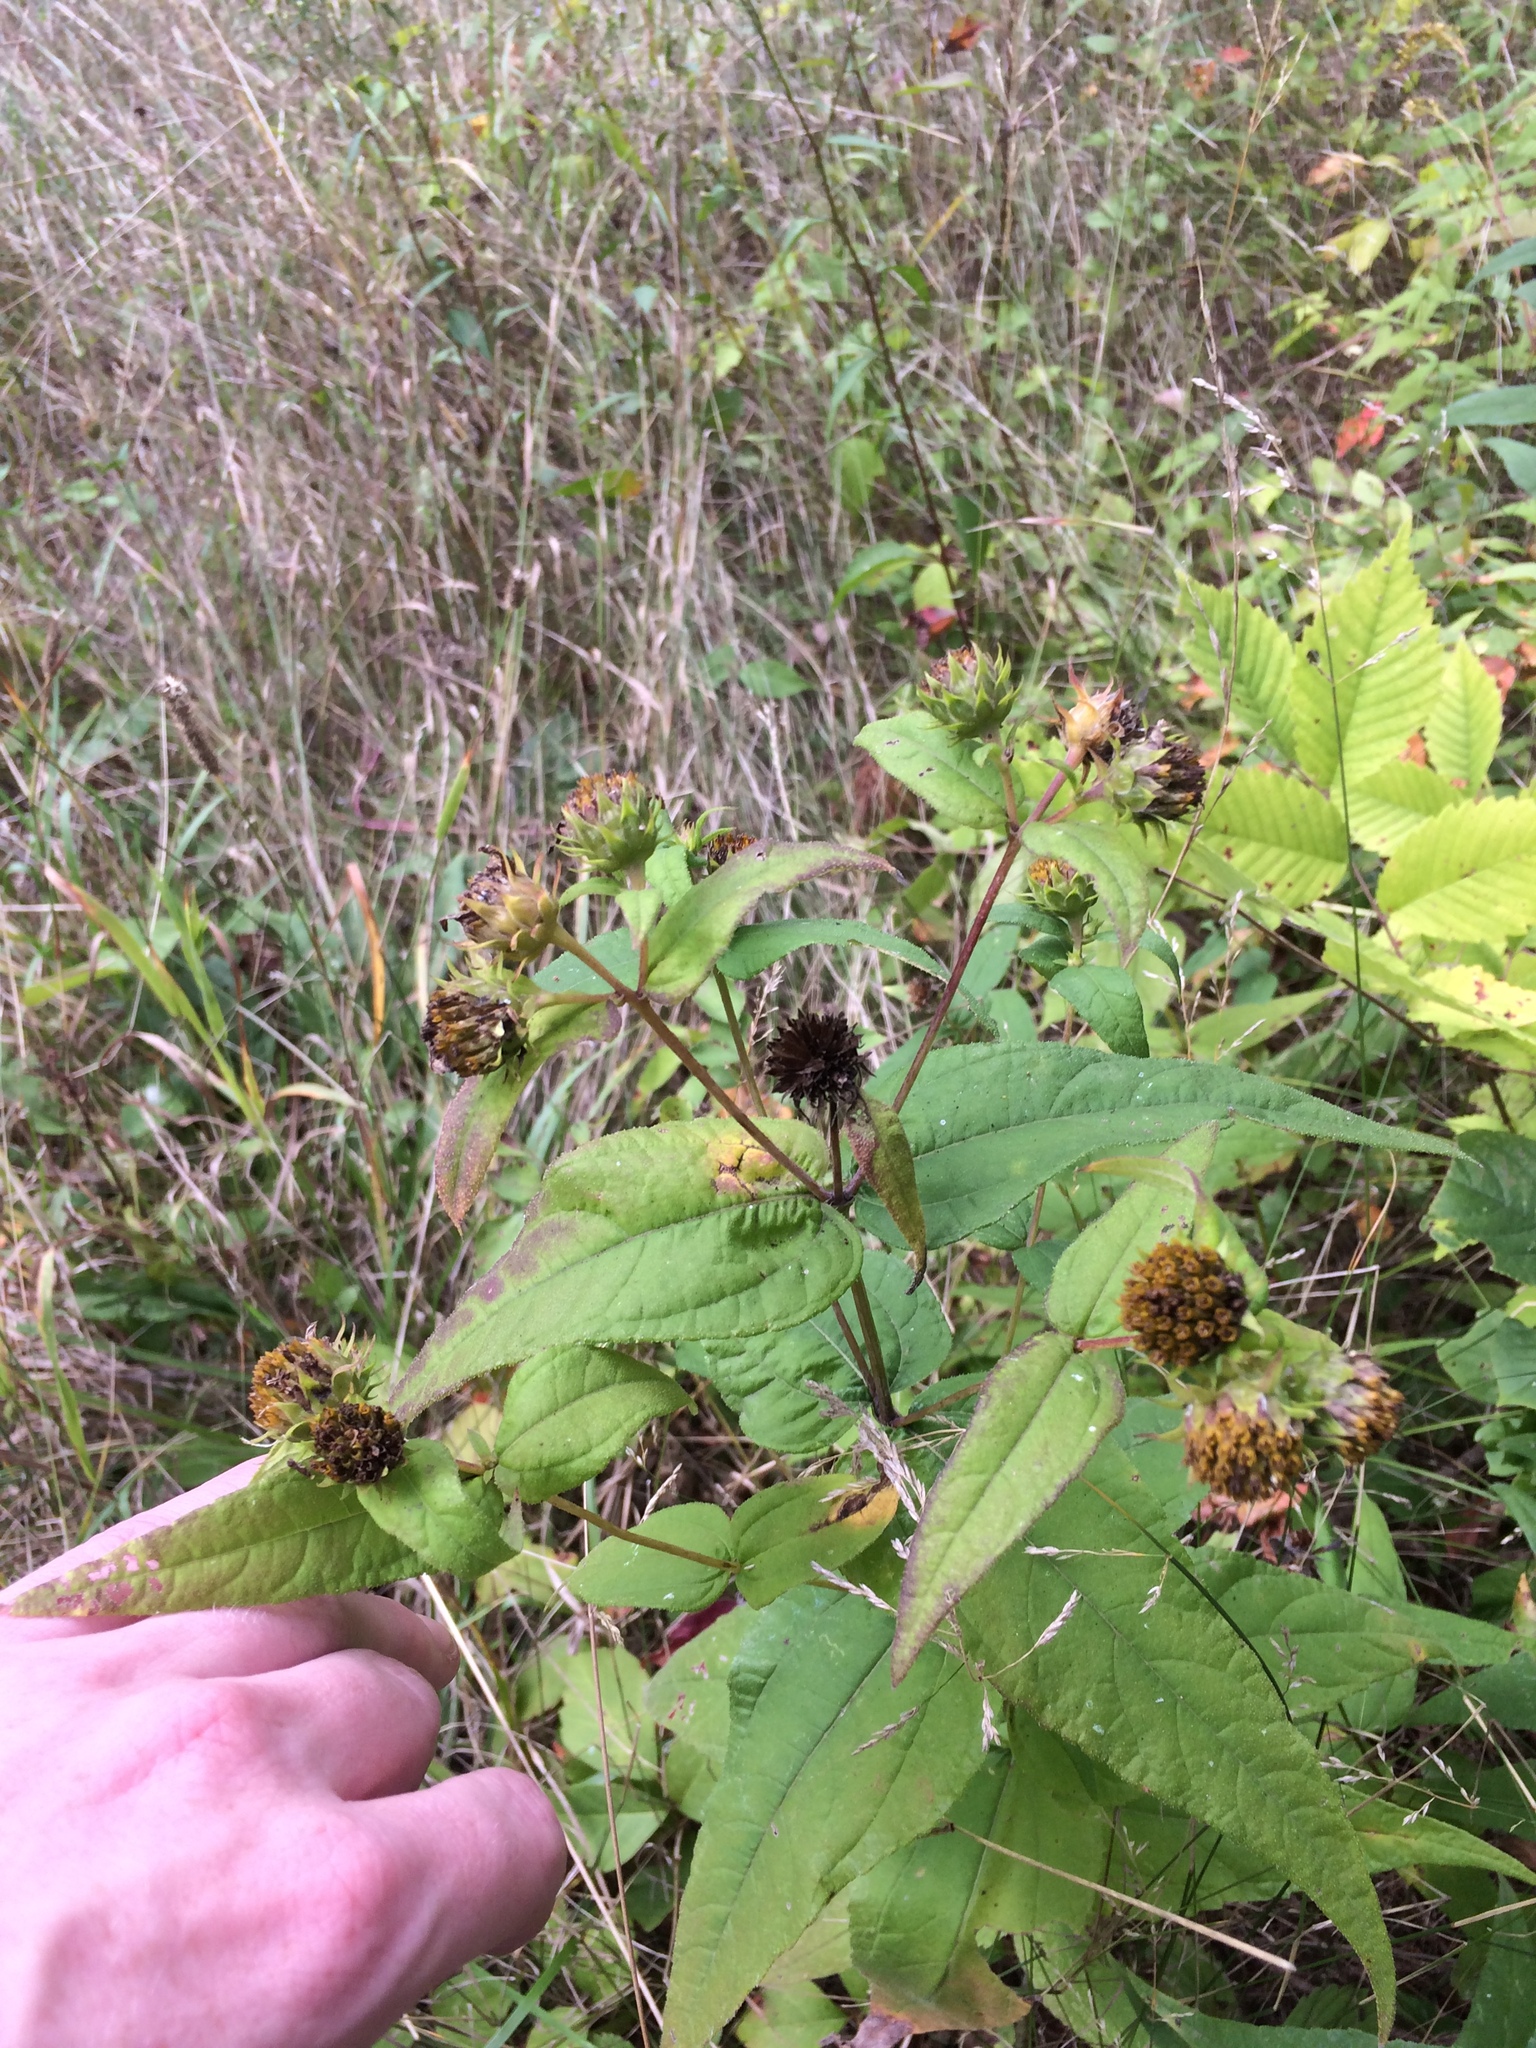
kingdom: Plantae
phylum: Tracheophyta
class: Magnoliopsida
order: Asterales
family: Asteraceae
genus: Helianthus
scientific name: Helianthus divaricatus
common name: Divergent sunflower
